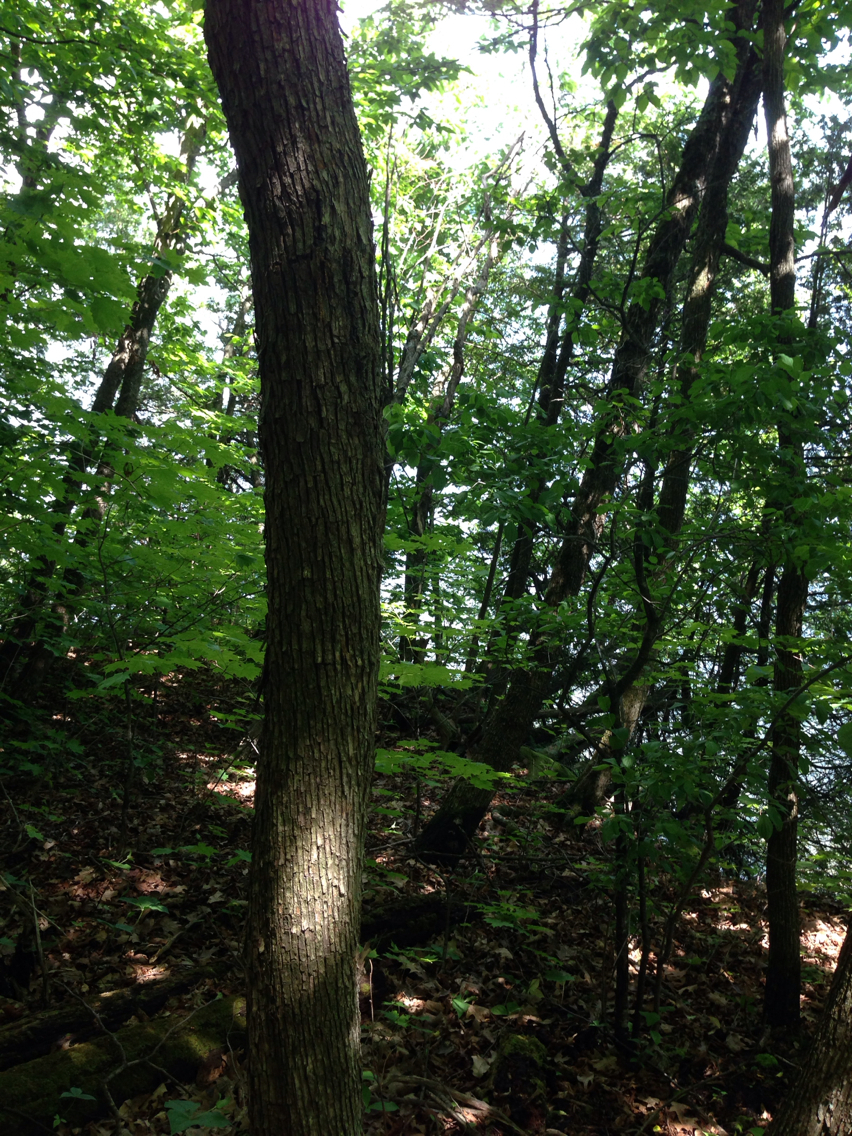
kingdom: Plantae
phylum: Tracheophyta
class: Magnoliopsida
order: Fagales
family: Betulaceae
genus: Ostrya
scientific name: Ostrya virginiana
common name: Ironwood
